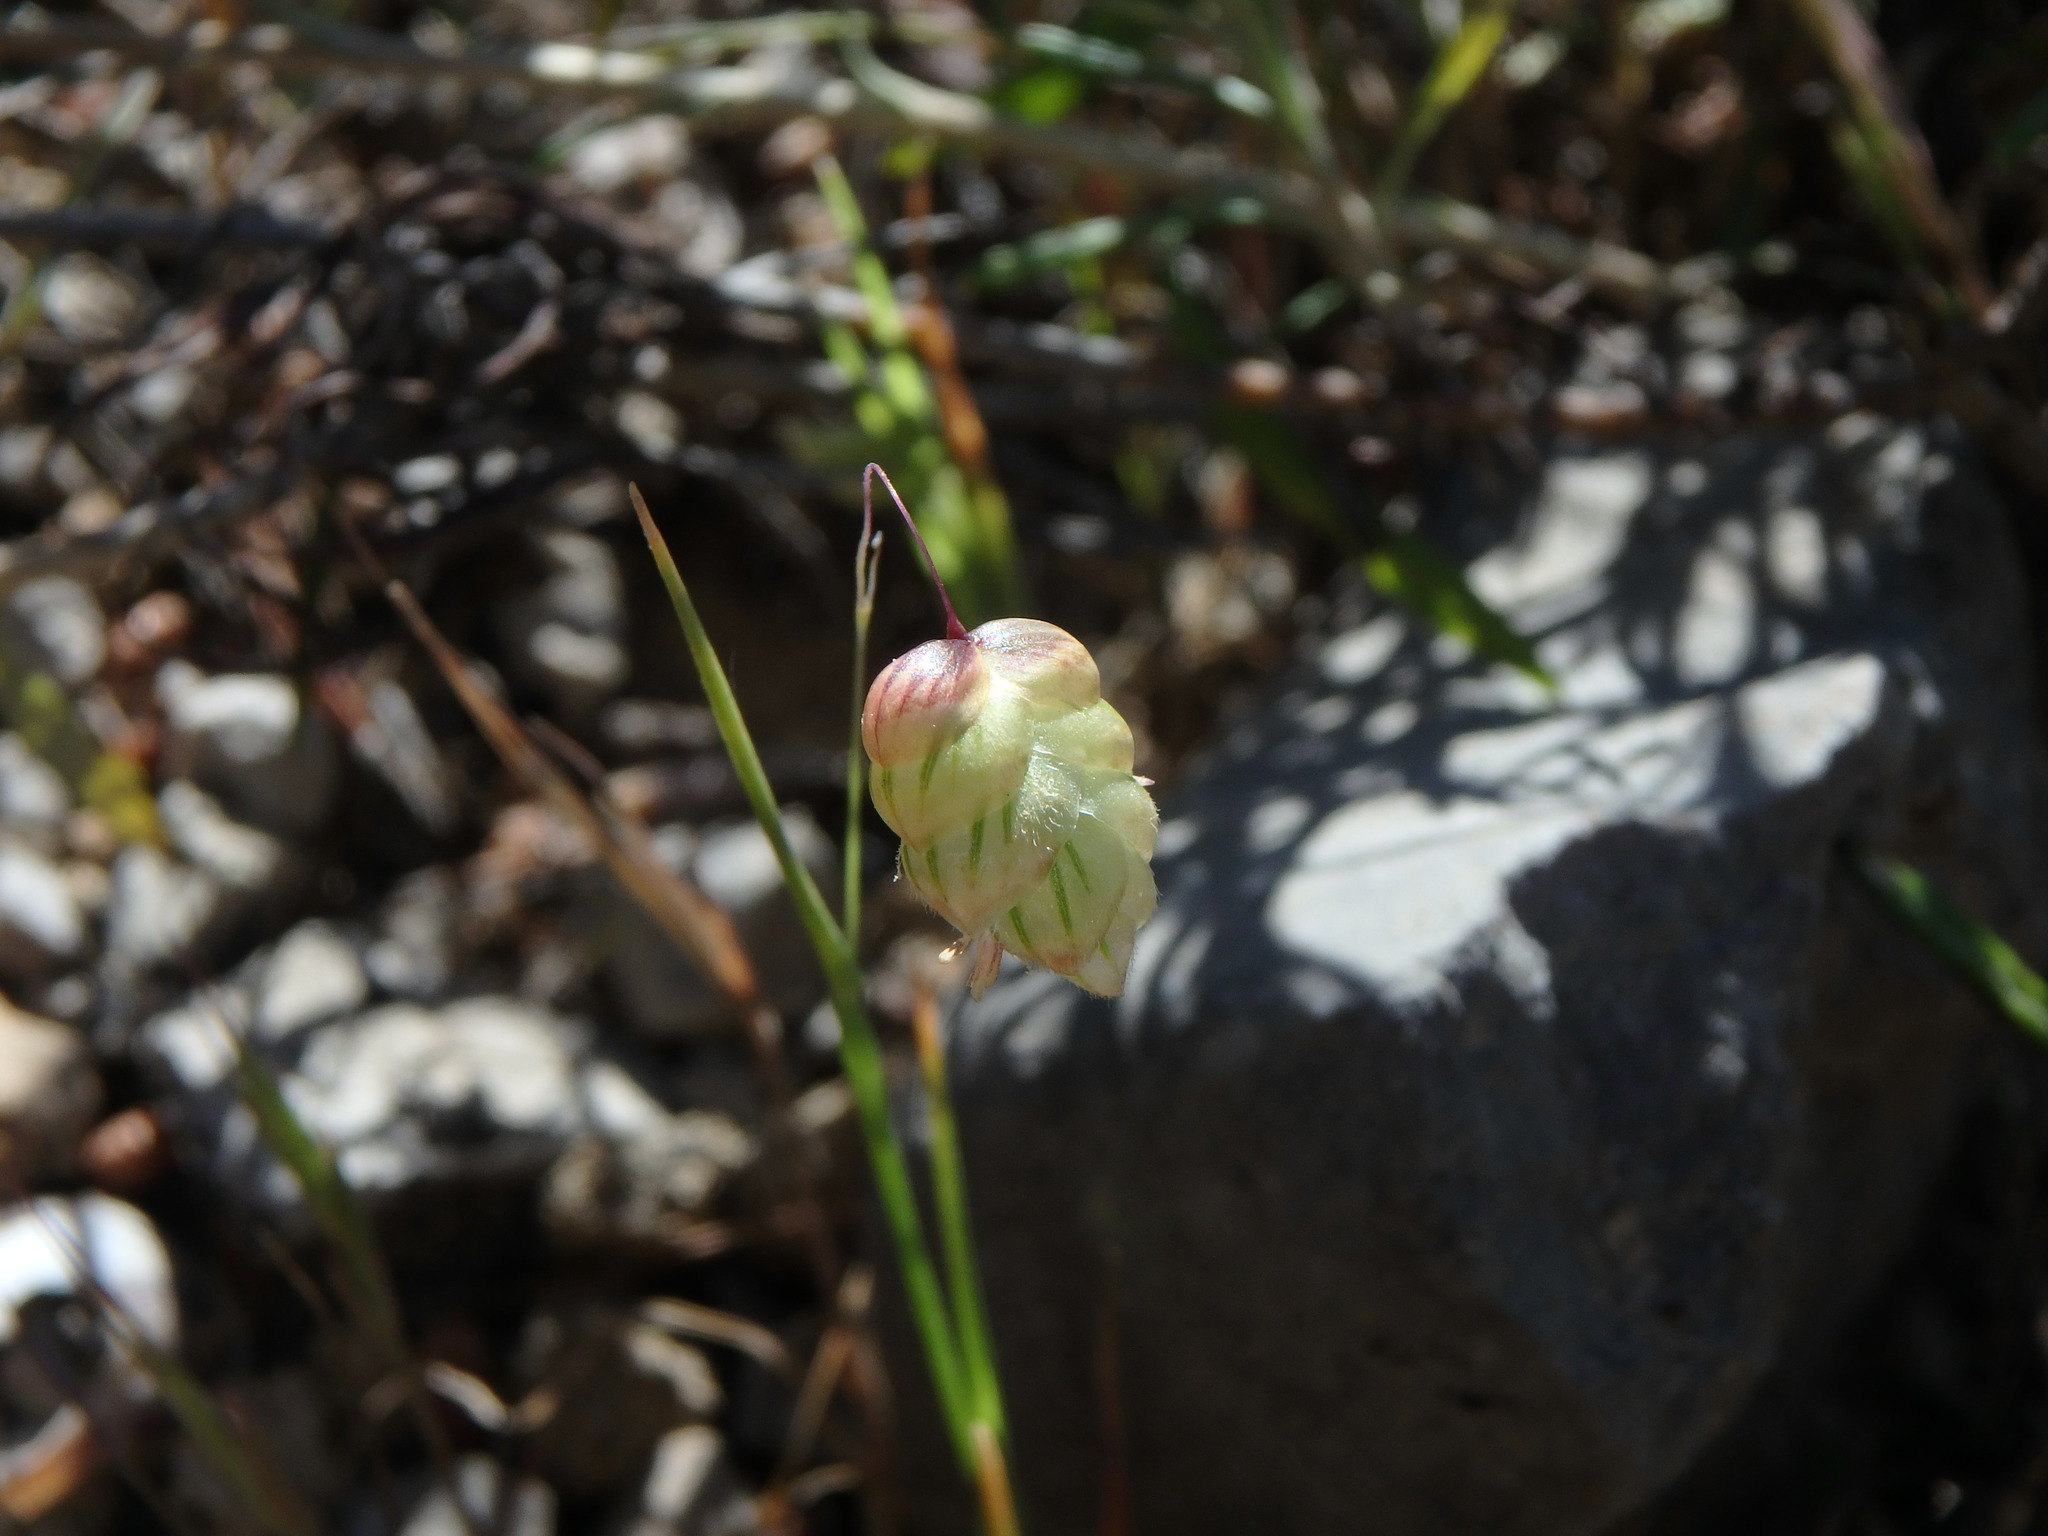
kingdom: Plantae
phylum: Tracheophyta
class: Liliopsida
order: Poales
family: Poaceae
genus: Briza
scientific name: Briza maxima
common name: Big quakinggrass
